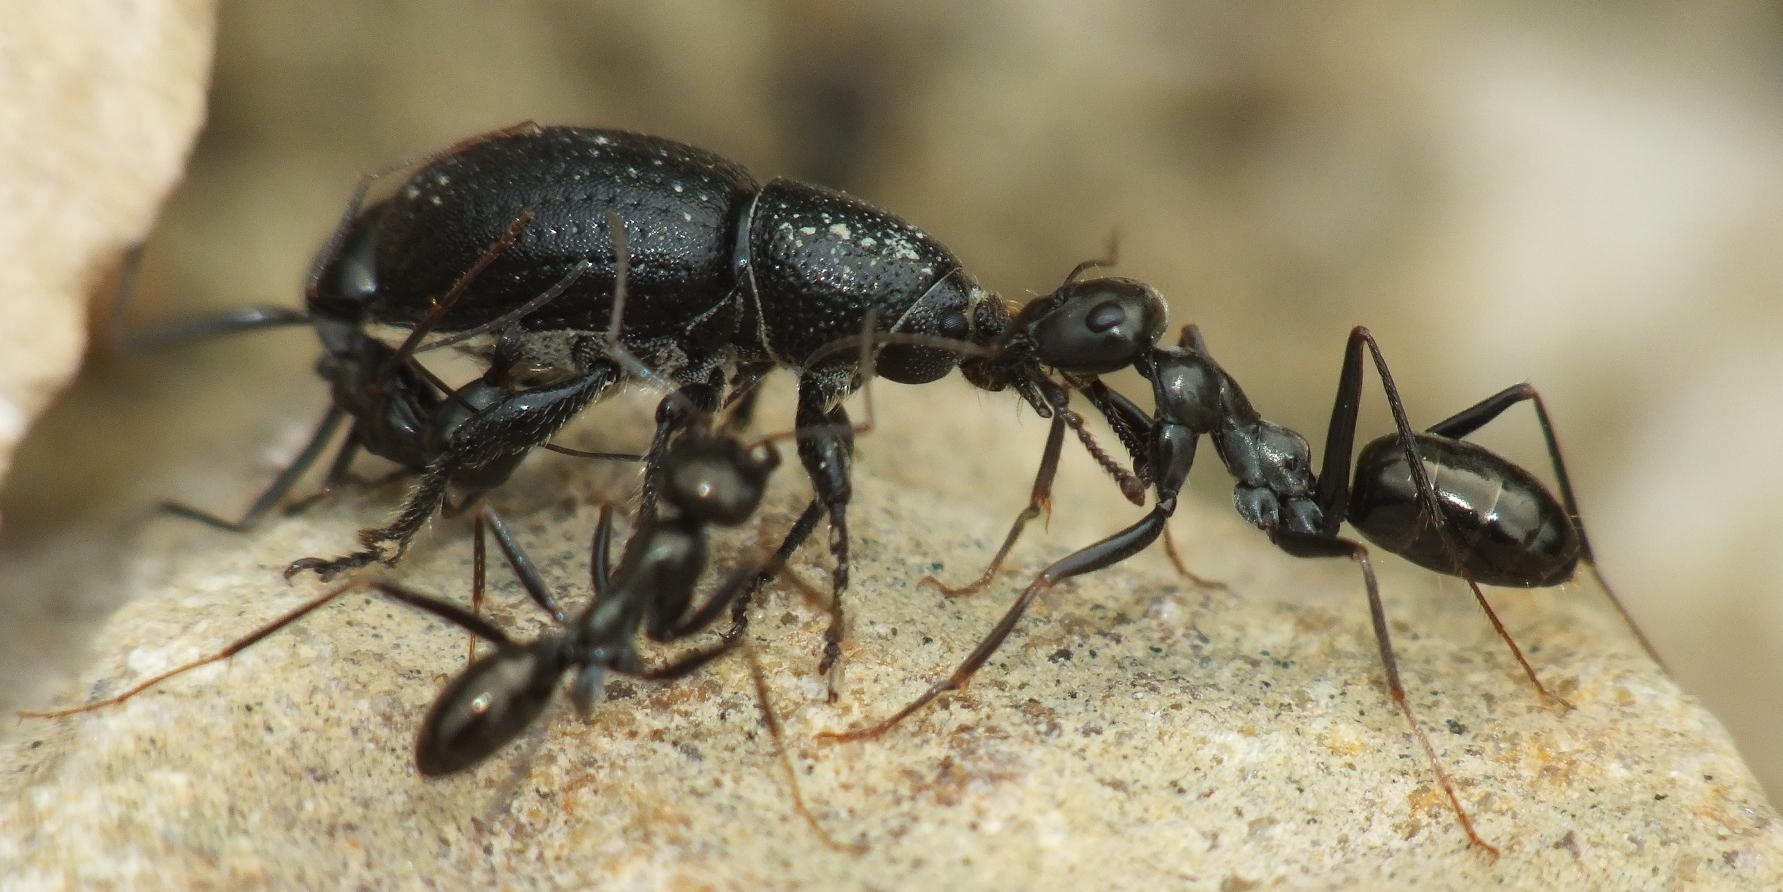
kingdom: Animalia
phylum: Arthropoda
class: Insecta
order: Hymenoptera
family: Formicidae
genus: Cataglyphis
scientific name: Cataglyphis aenescens
